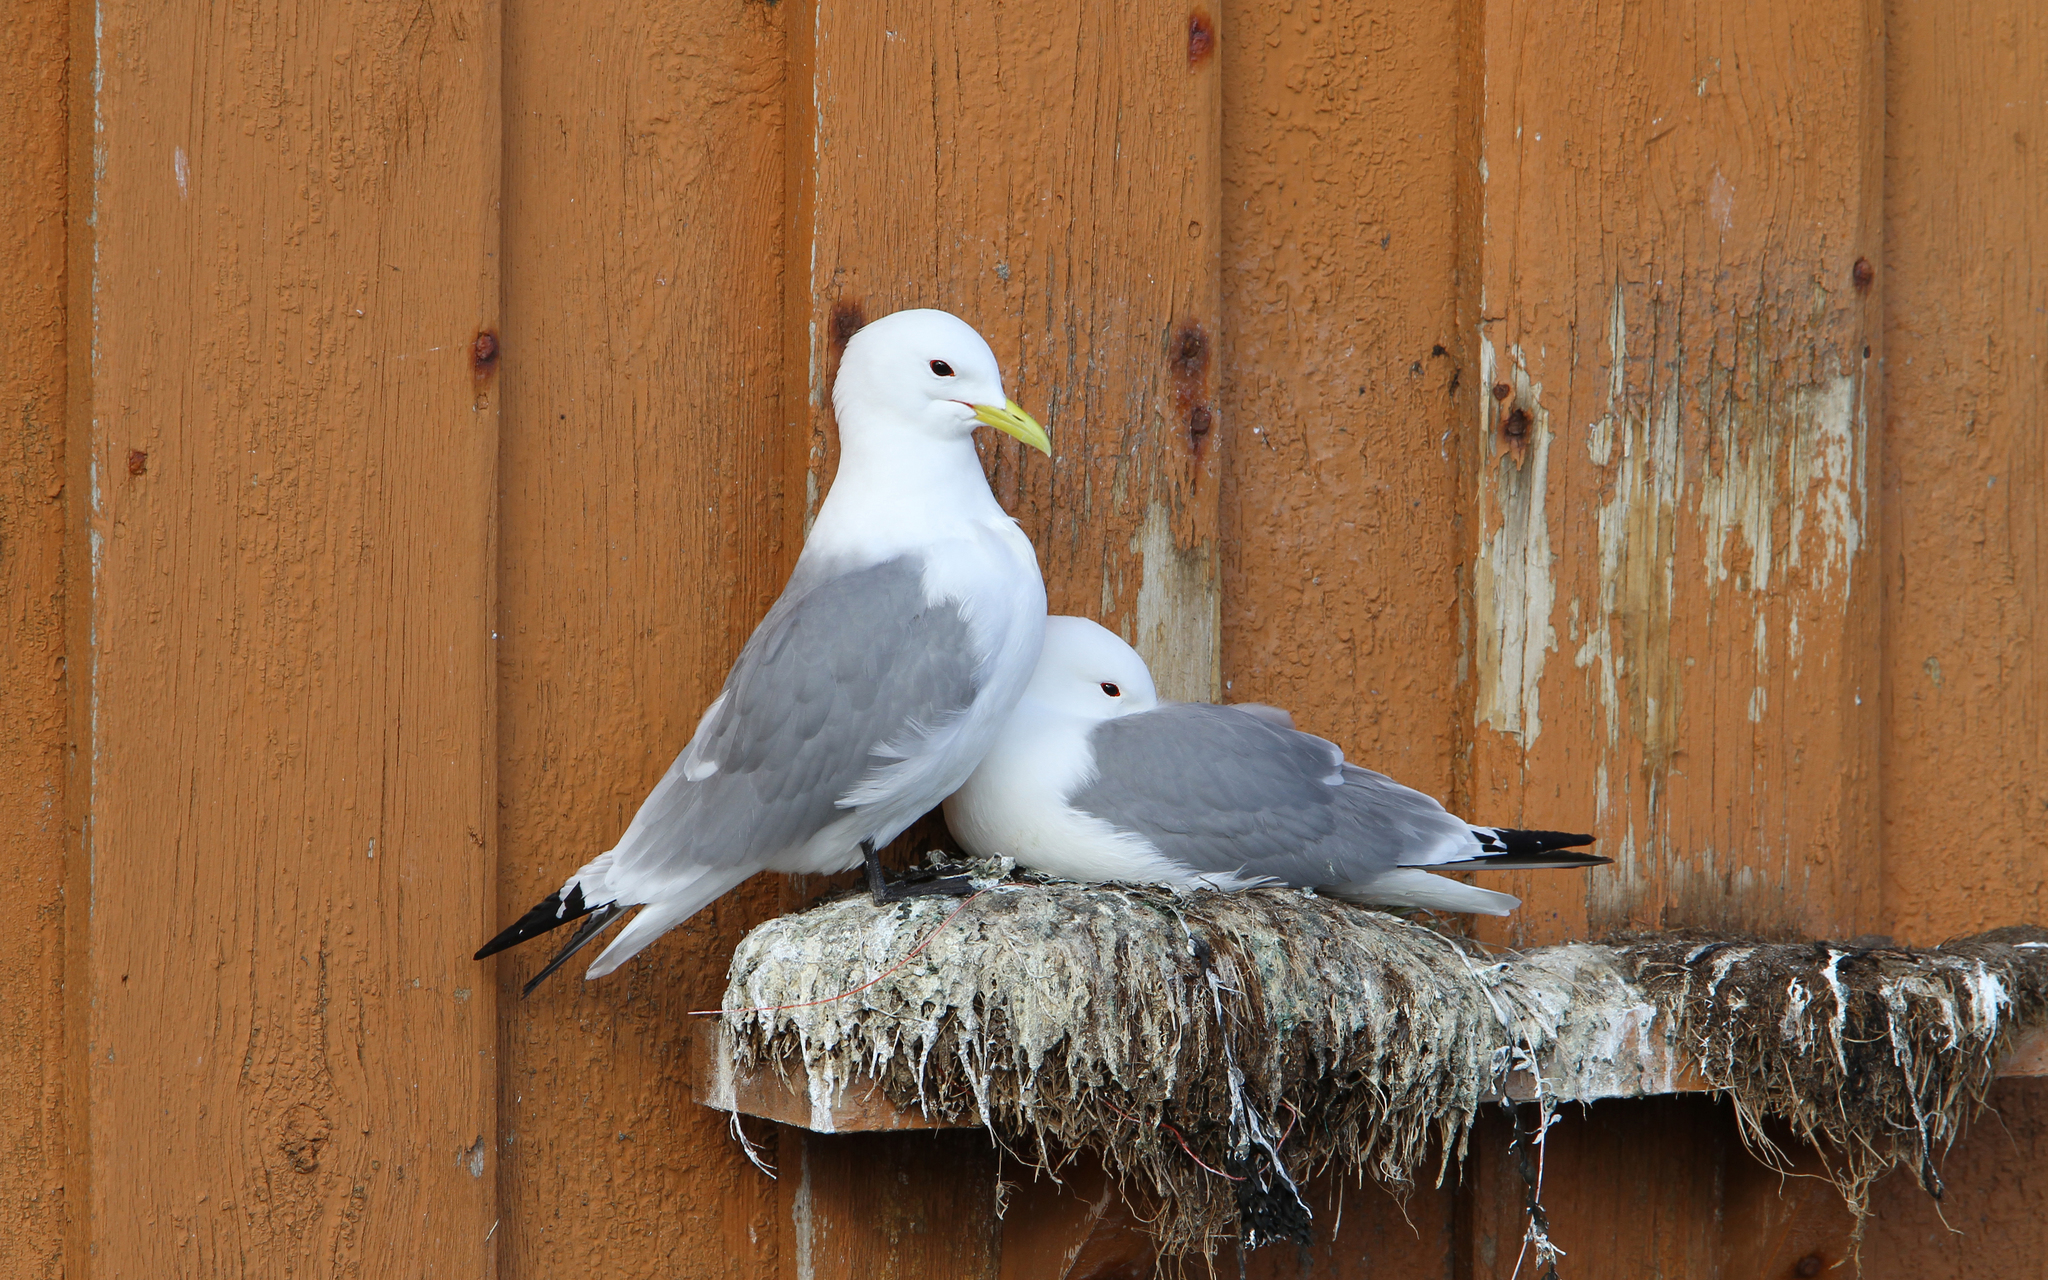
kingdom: Animalia
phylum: Chordata
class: Aves
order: Charadriiformes
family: Laridae
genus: Rissa
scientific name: Rissa tridactyla
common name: Black-legged kittiwake
